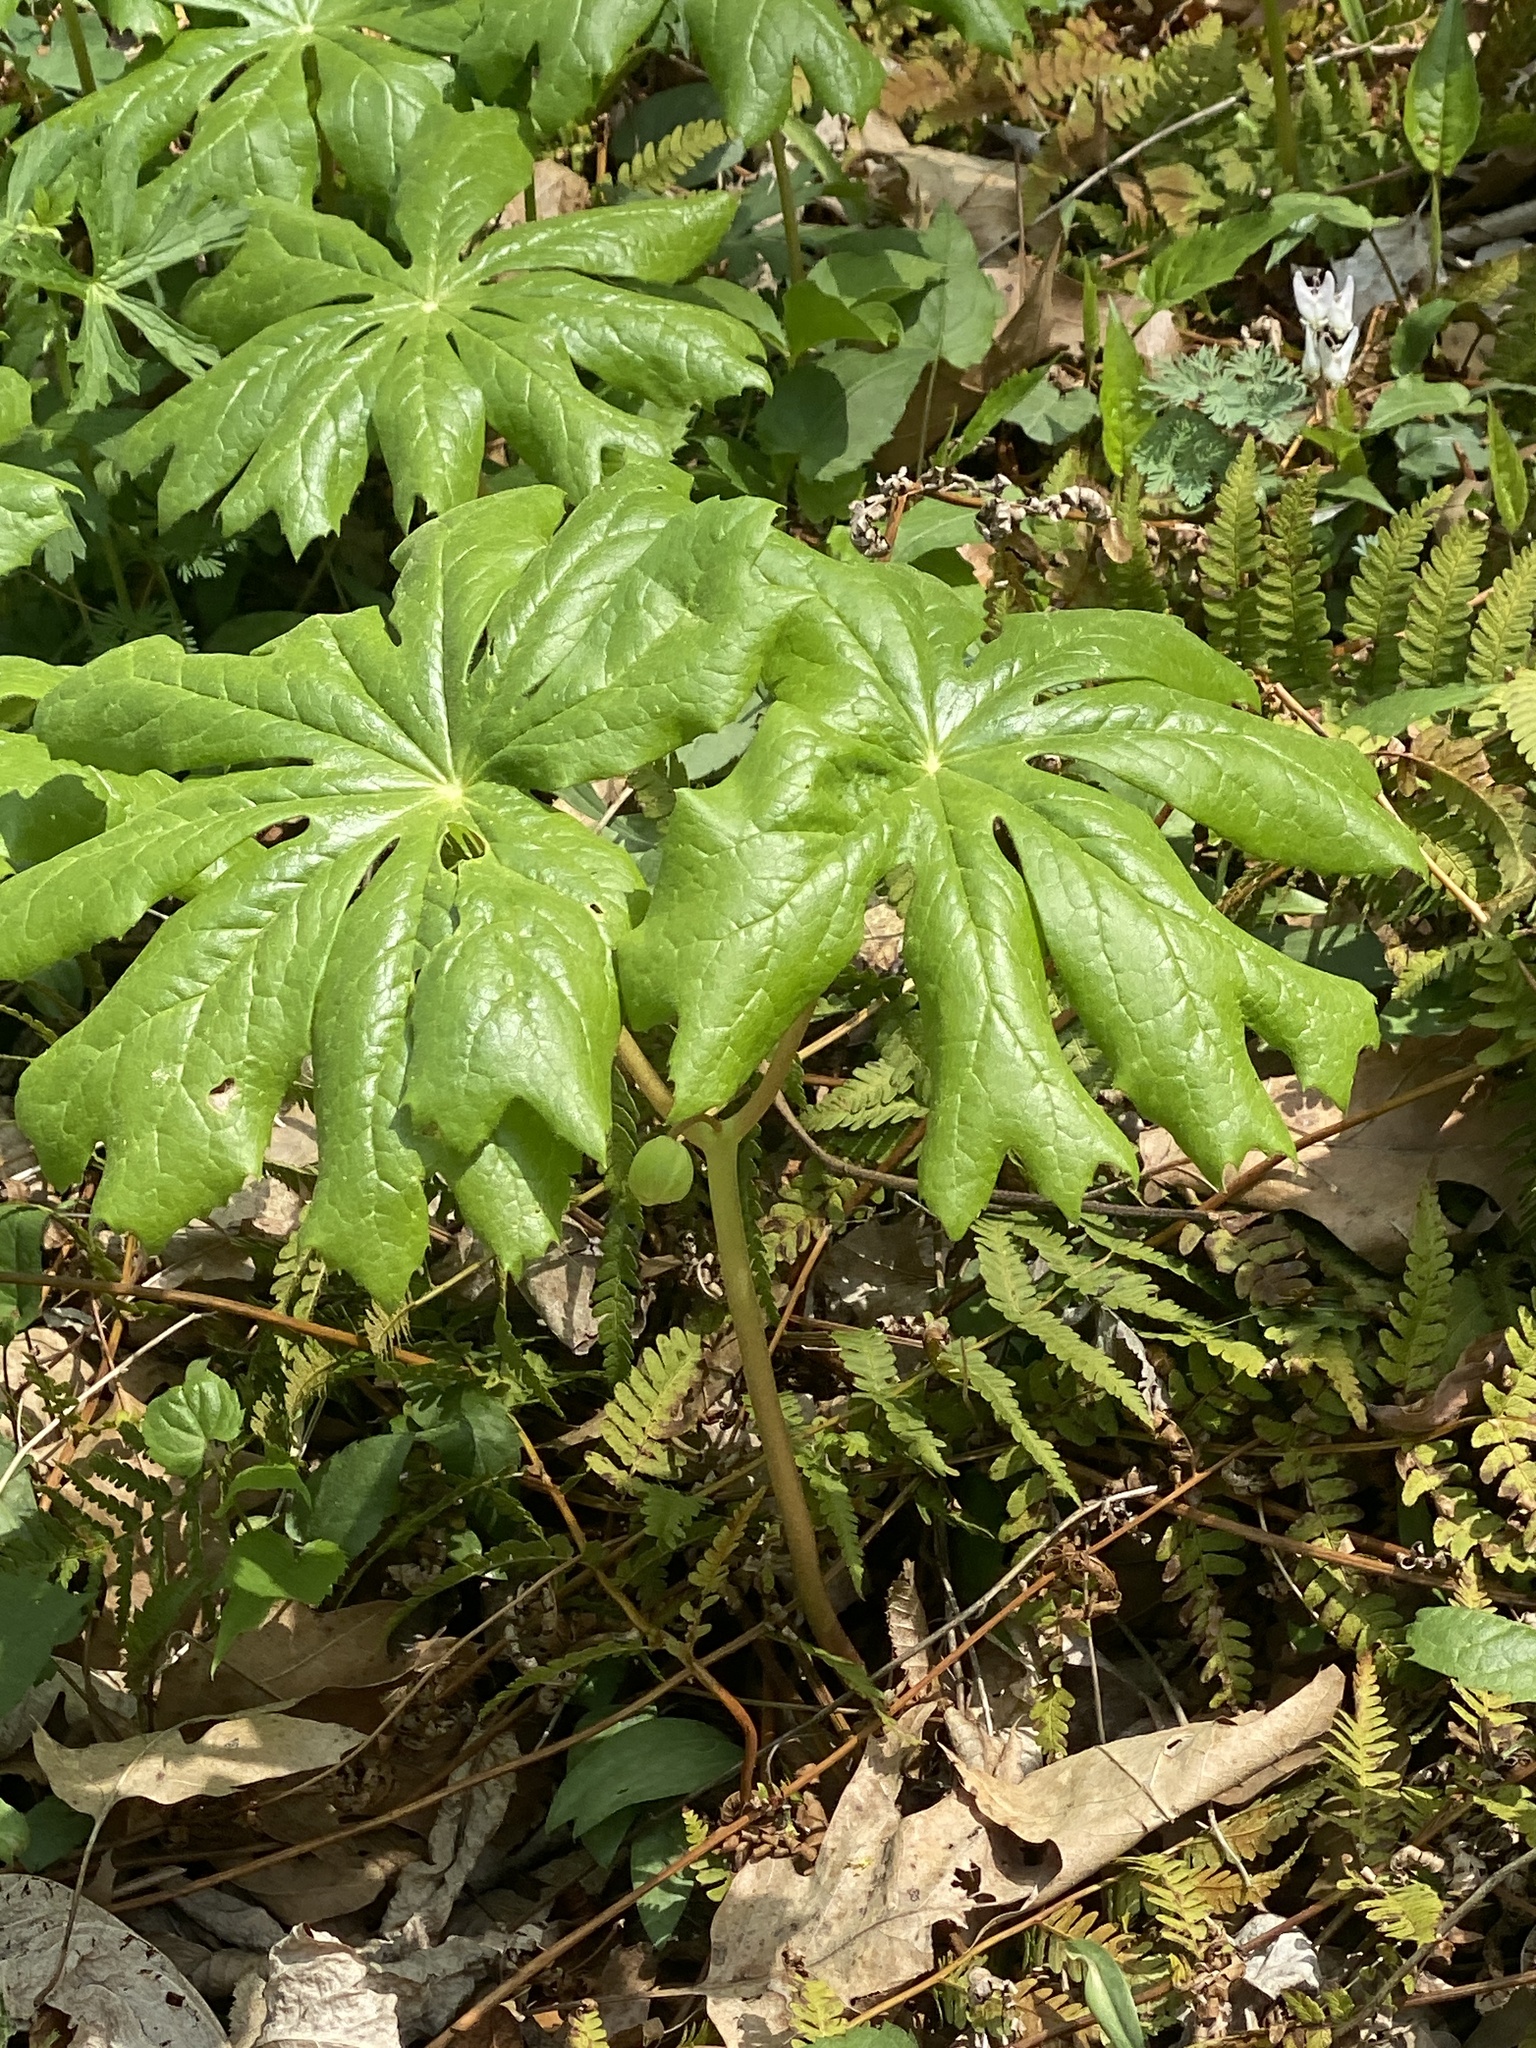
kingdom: Plantae
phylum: Tracheophyta
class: Magnoliopsida
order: Ranunculales
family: Berberidaceae
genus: Podophyllum
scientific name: Podophyllum peltatum
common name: Wild mandrake
